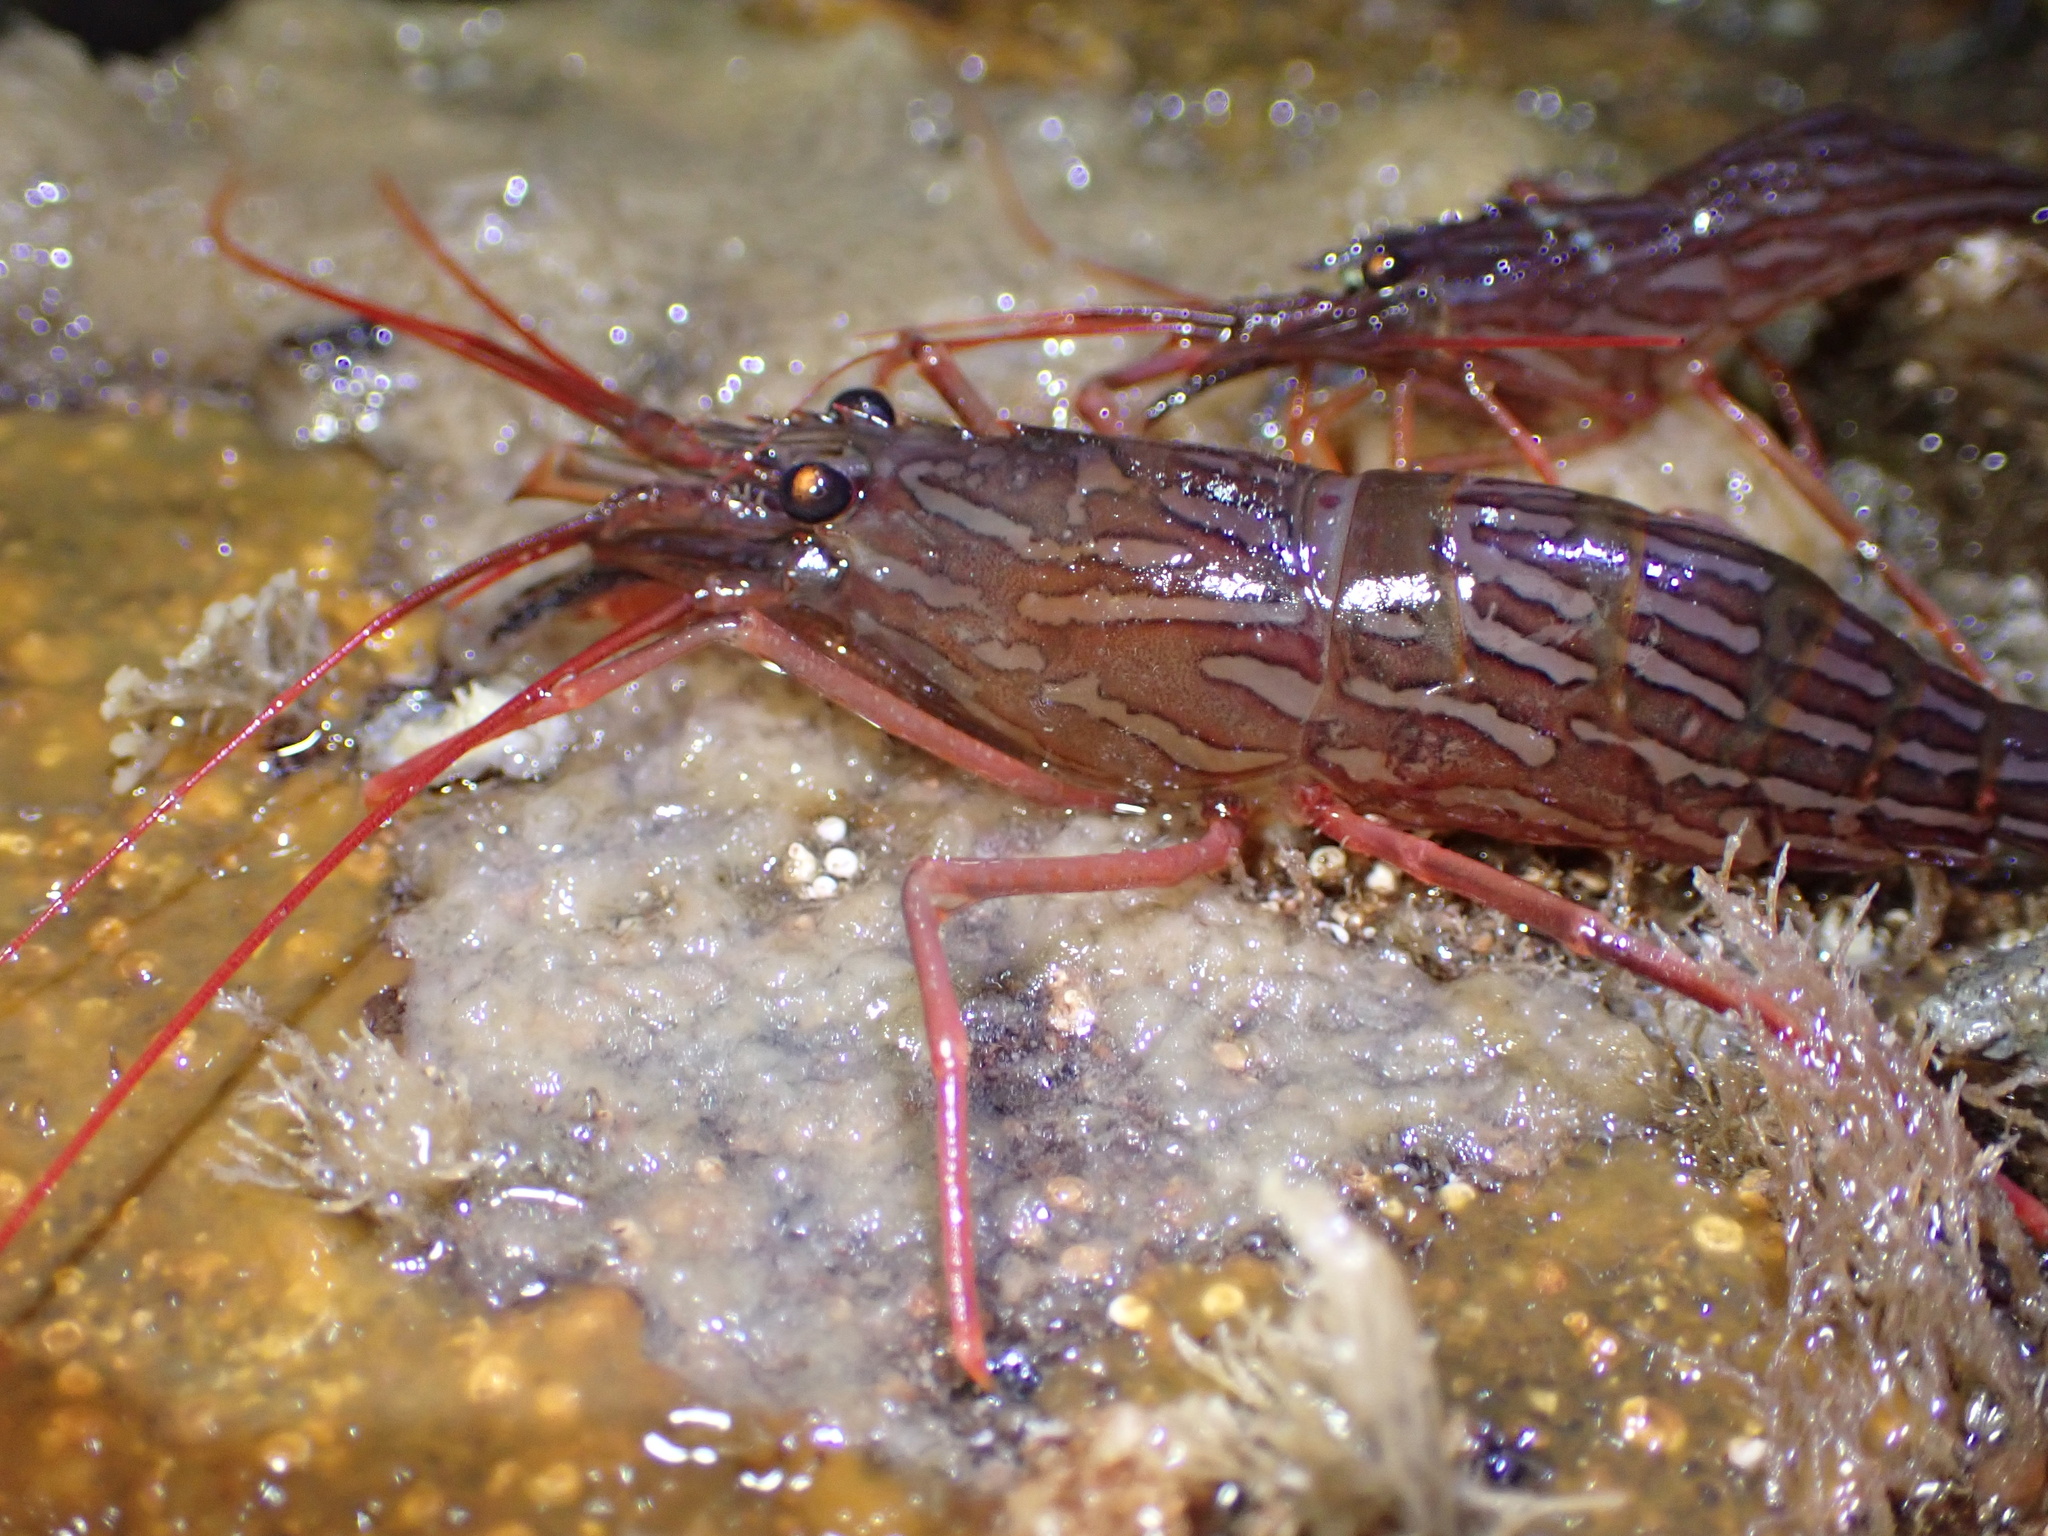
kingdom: Animalia
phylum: Arthropoda
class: Malacostraca
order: Decapoda
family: Lysmatidae
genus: Lysmata
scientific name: Lysmata californica
